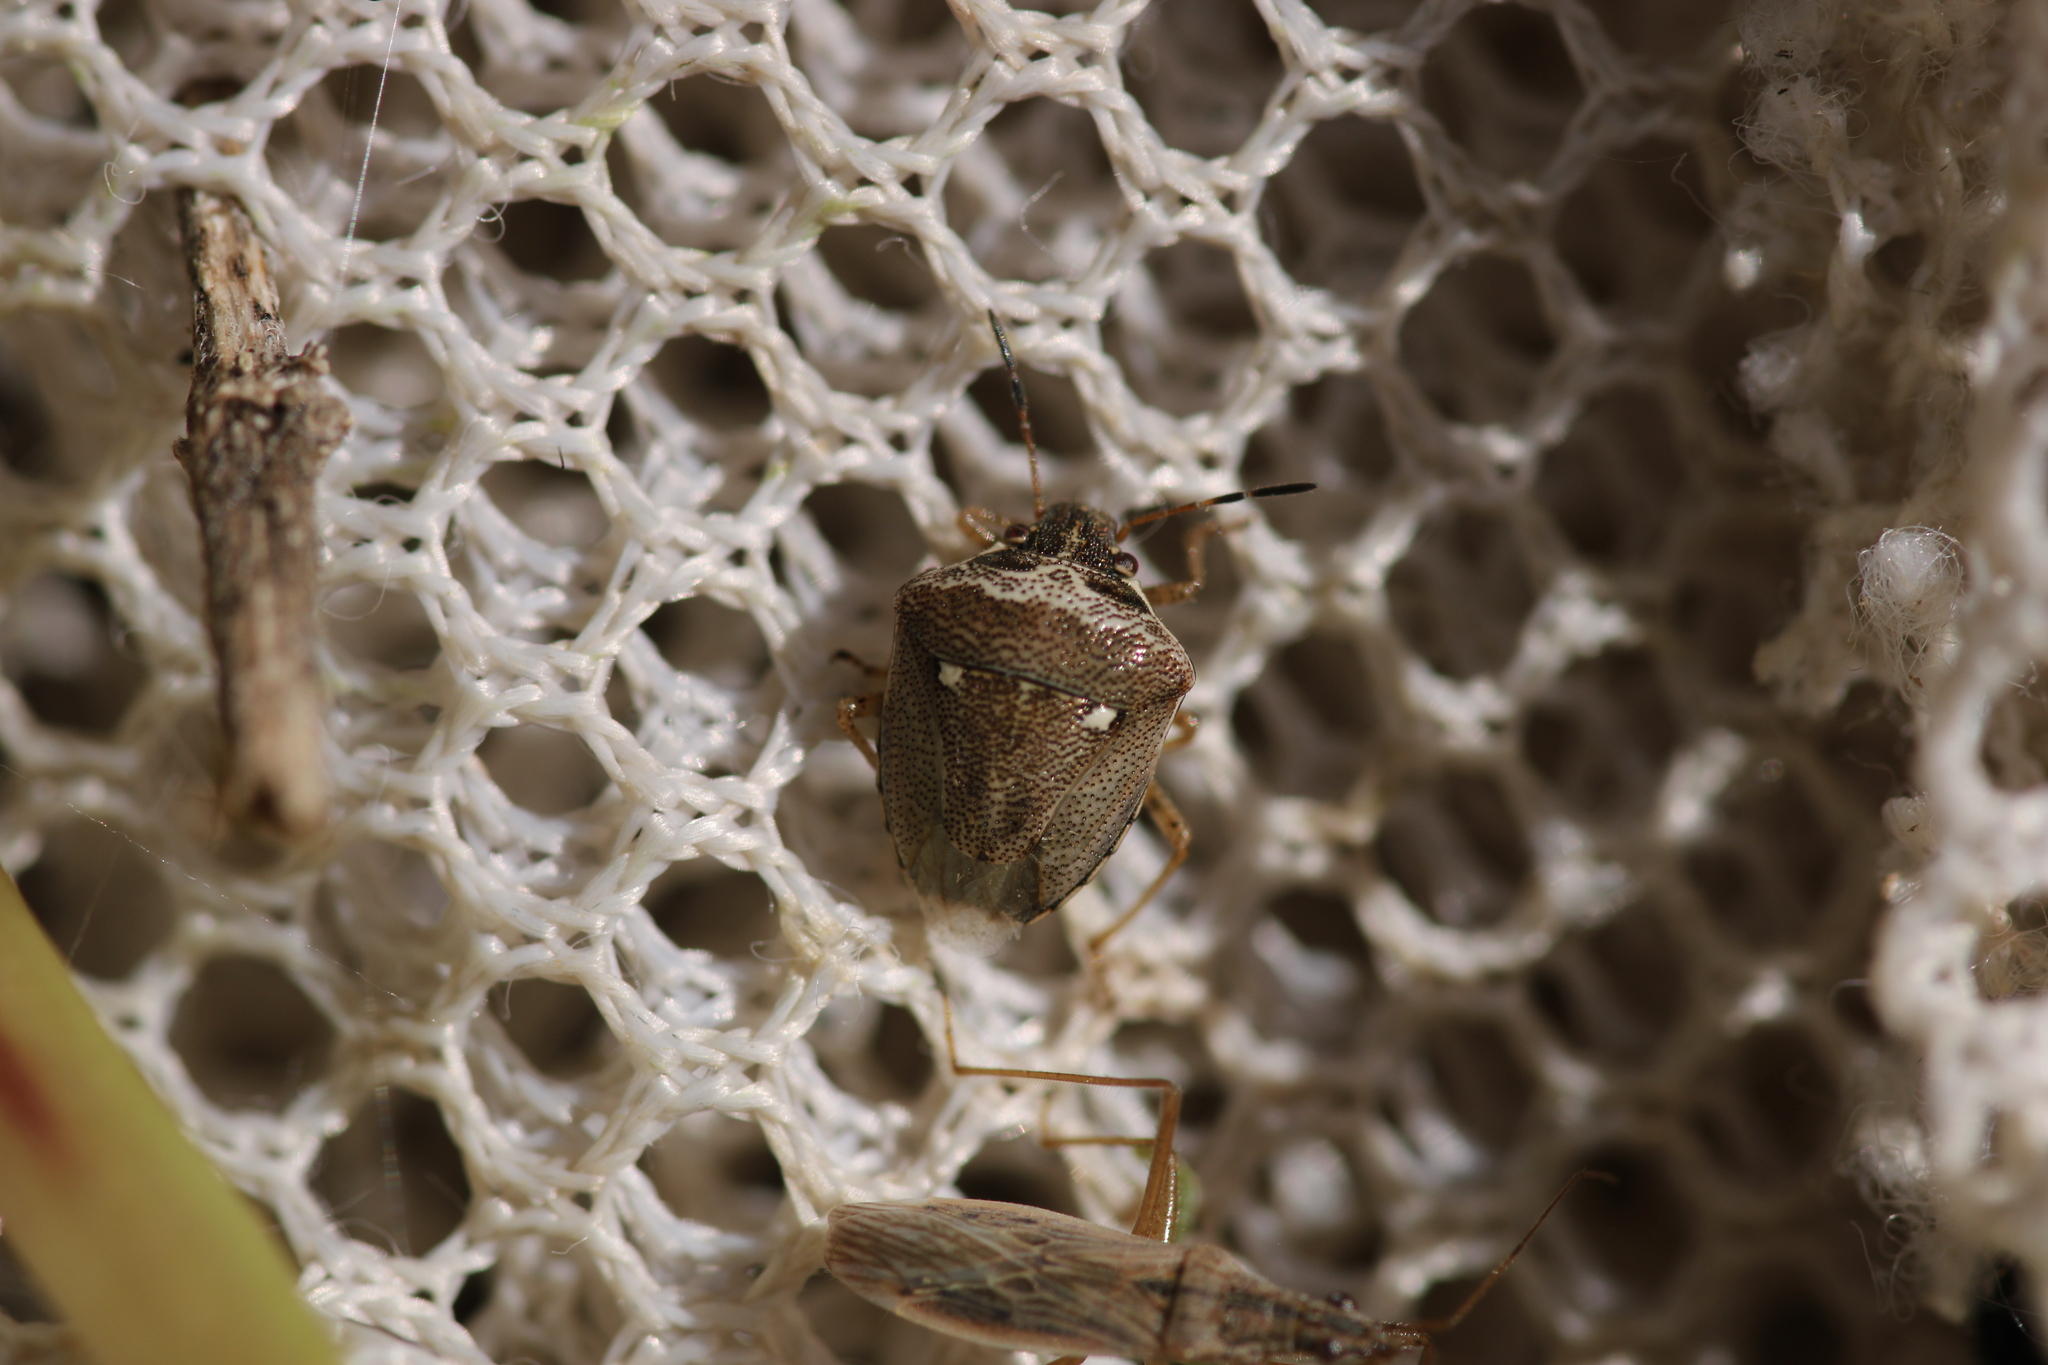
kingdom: Animalia
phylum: Arthropoda
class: Insecta
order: Hemiptera
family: Pentatomidae
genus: Eysarcoris
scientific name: Eysarcoris ventralis
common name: White-spotted stink bug
